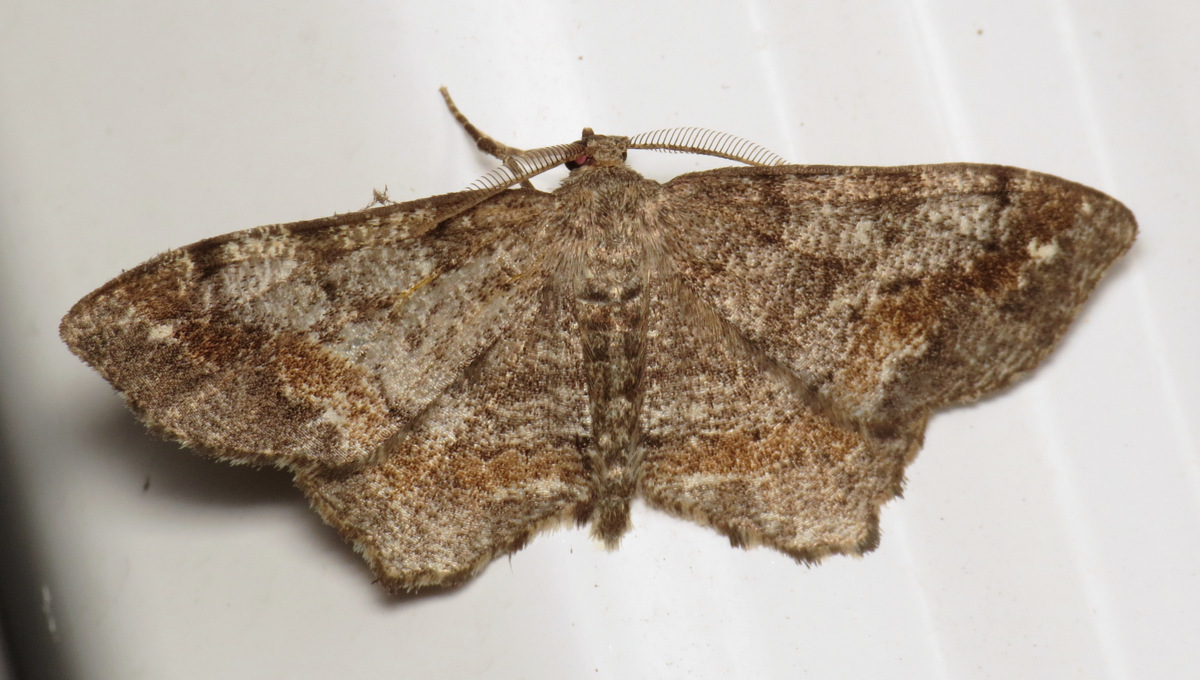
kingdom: Animalia
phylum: Arthropoda
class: Insecta
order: Lepidoptera
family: Geometridae
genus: Hypagyrtis
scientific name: Hypagyrtis unipunctata
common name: One-spotted variant
